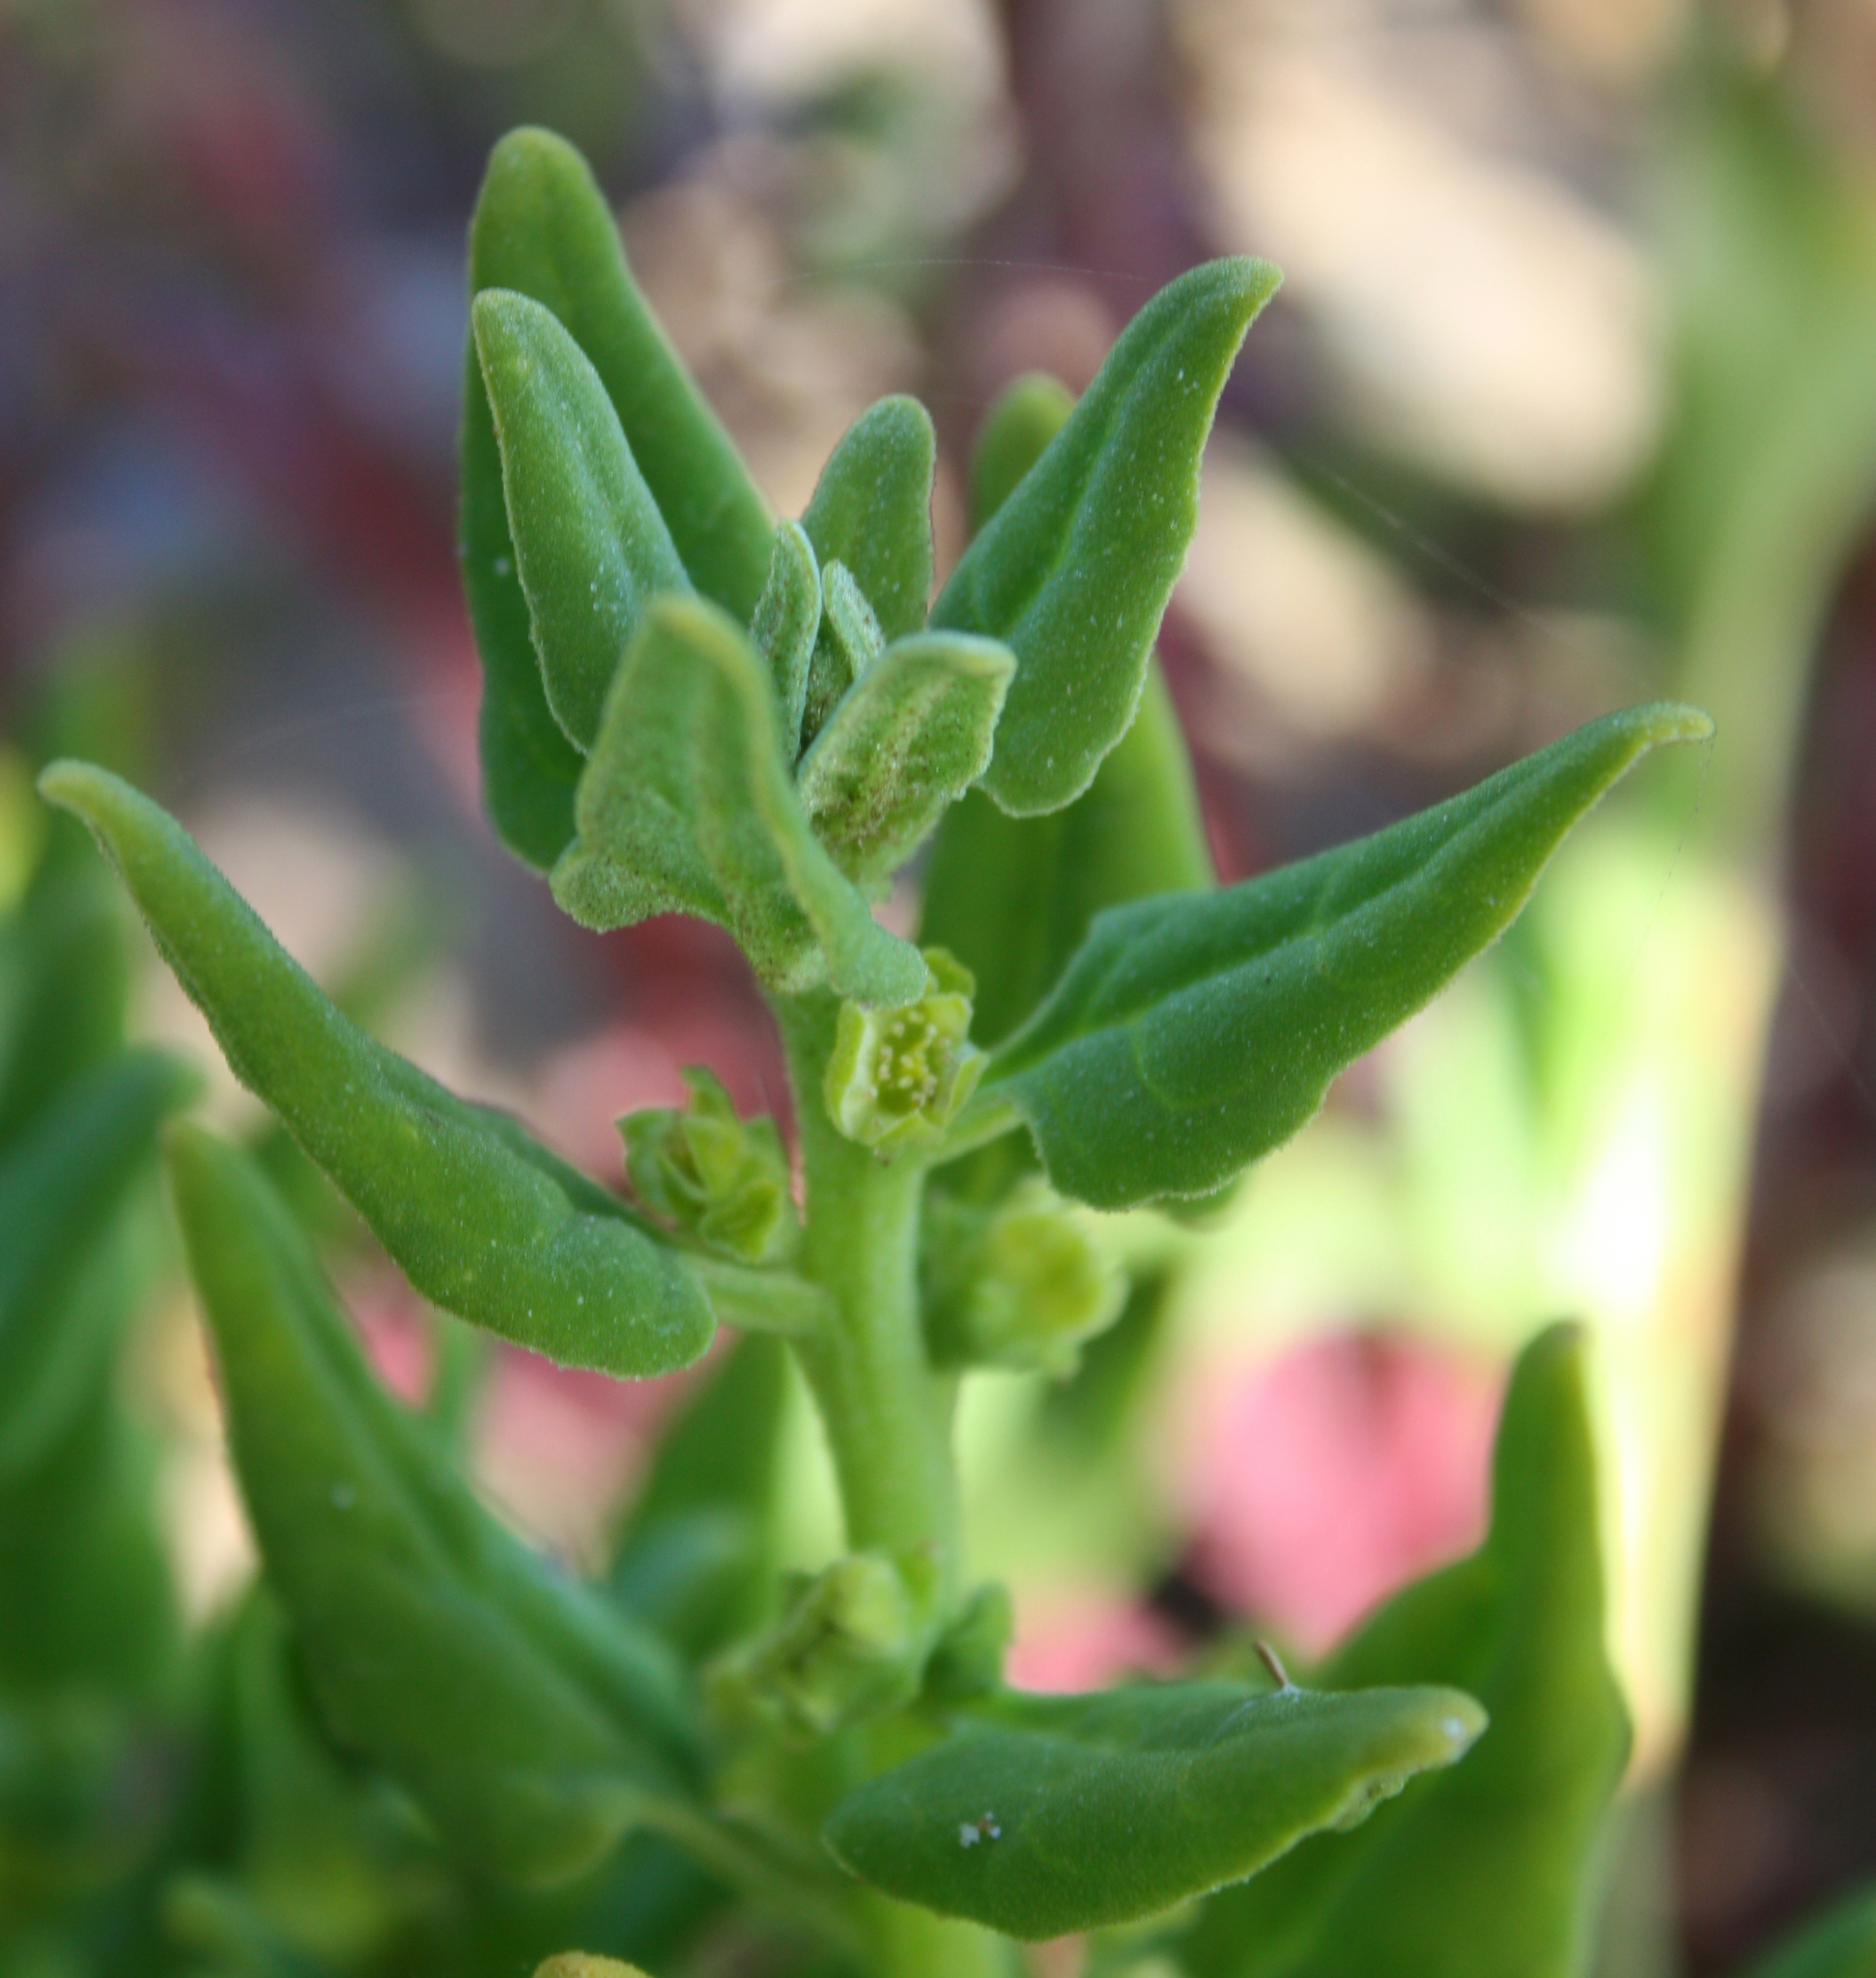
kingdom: Plantae
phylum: Tracheophyta
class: Magnoliopsida
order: Caryophyllales
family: Aizoaceae
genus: Tetragonia
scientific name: Tetragonia tetragonoides
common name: New zealand-spinach
